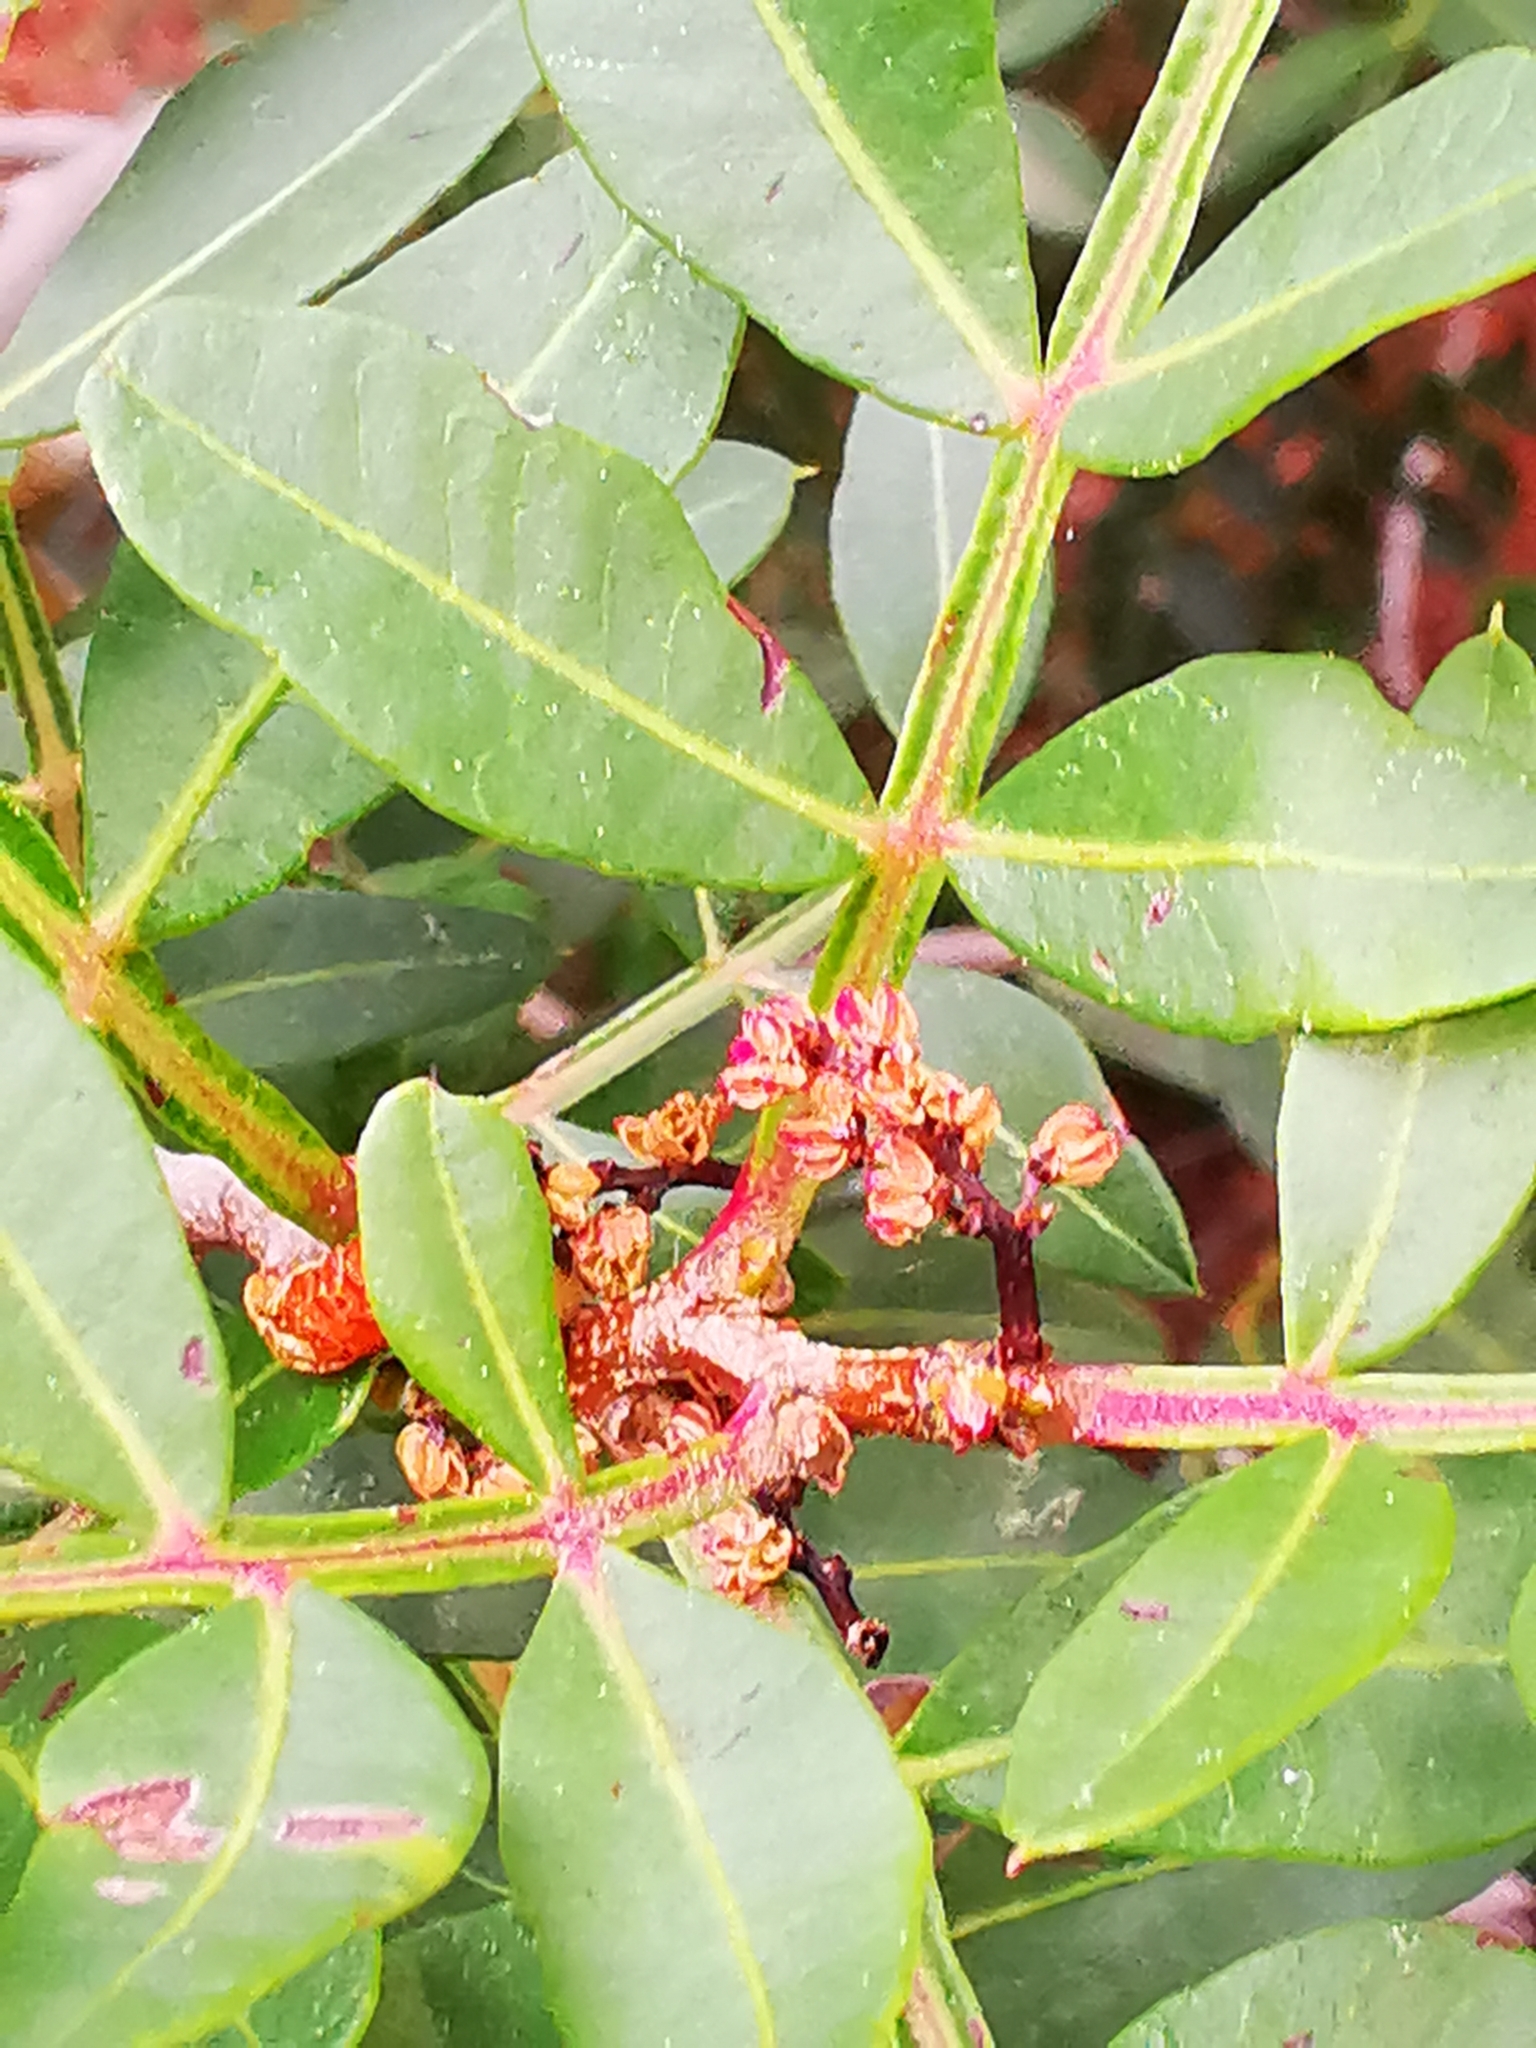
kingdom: Plantae
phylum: Tracheophyta
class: Magnoliopsida
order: Sapindales
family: Anacardiaceae
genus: Pistacia
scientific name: Pistacia lentiscus
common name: Lentisk
